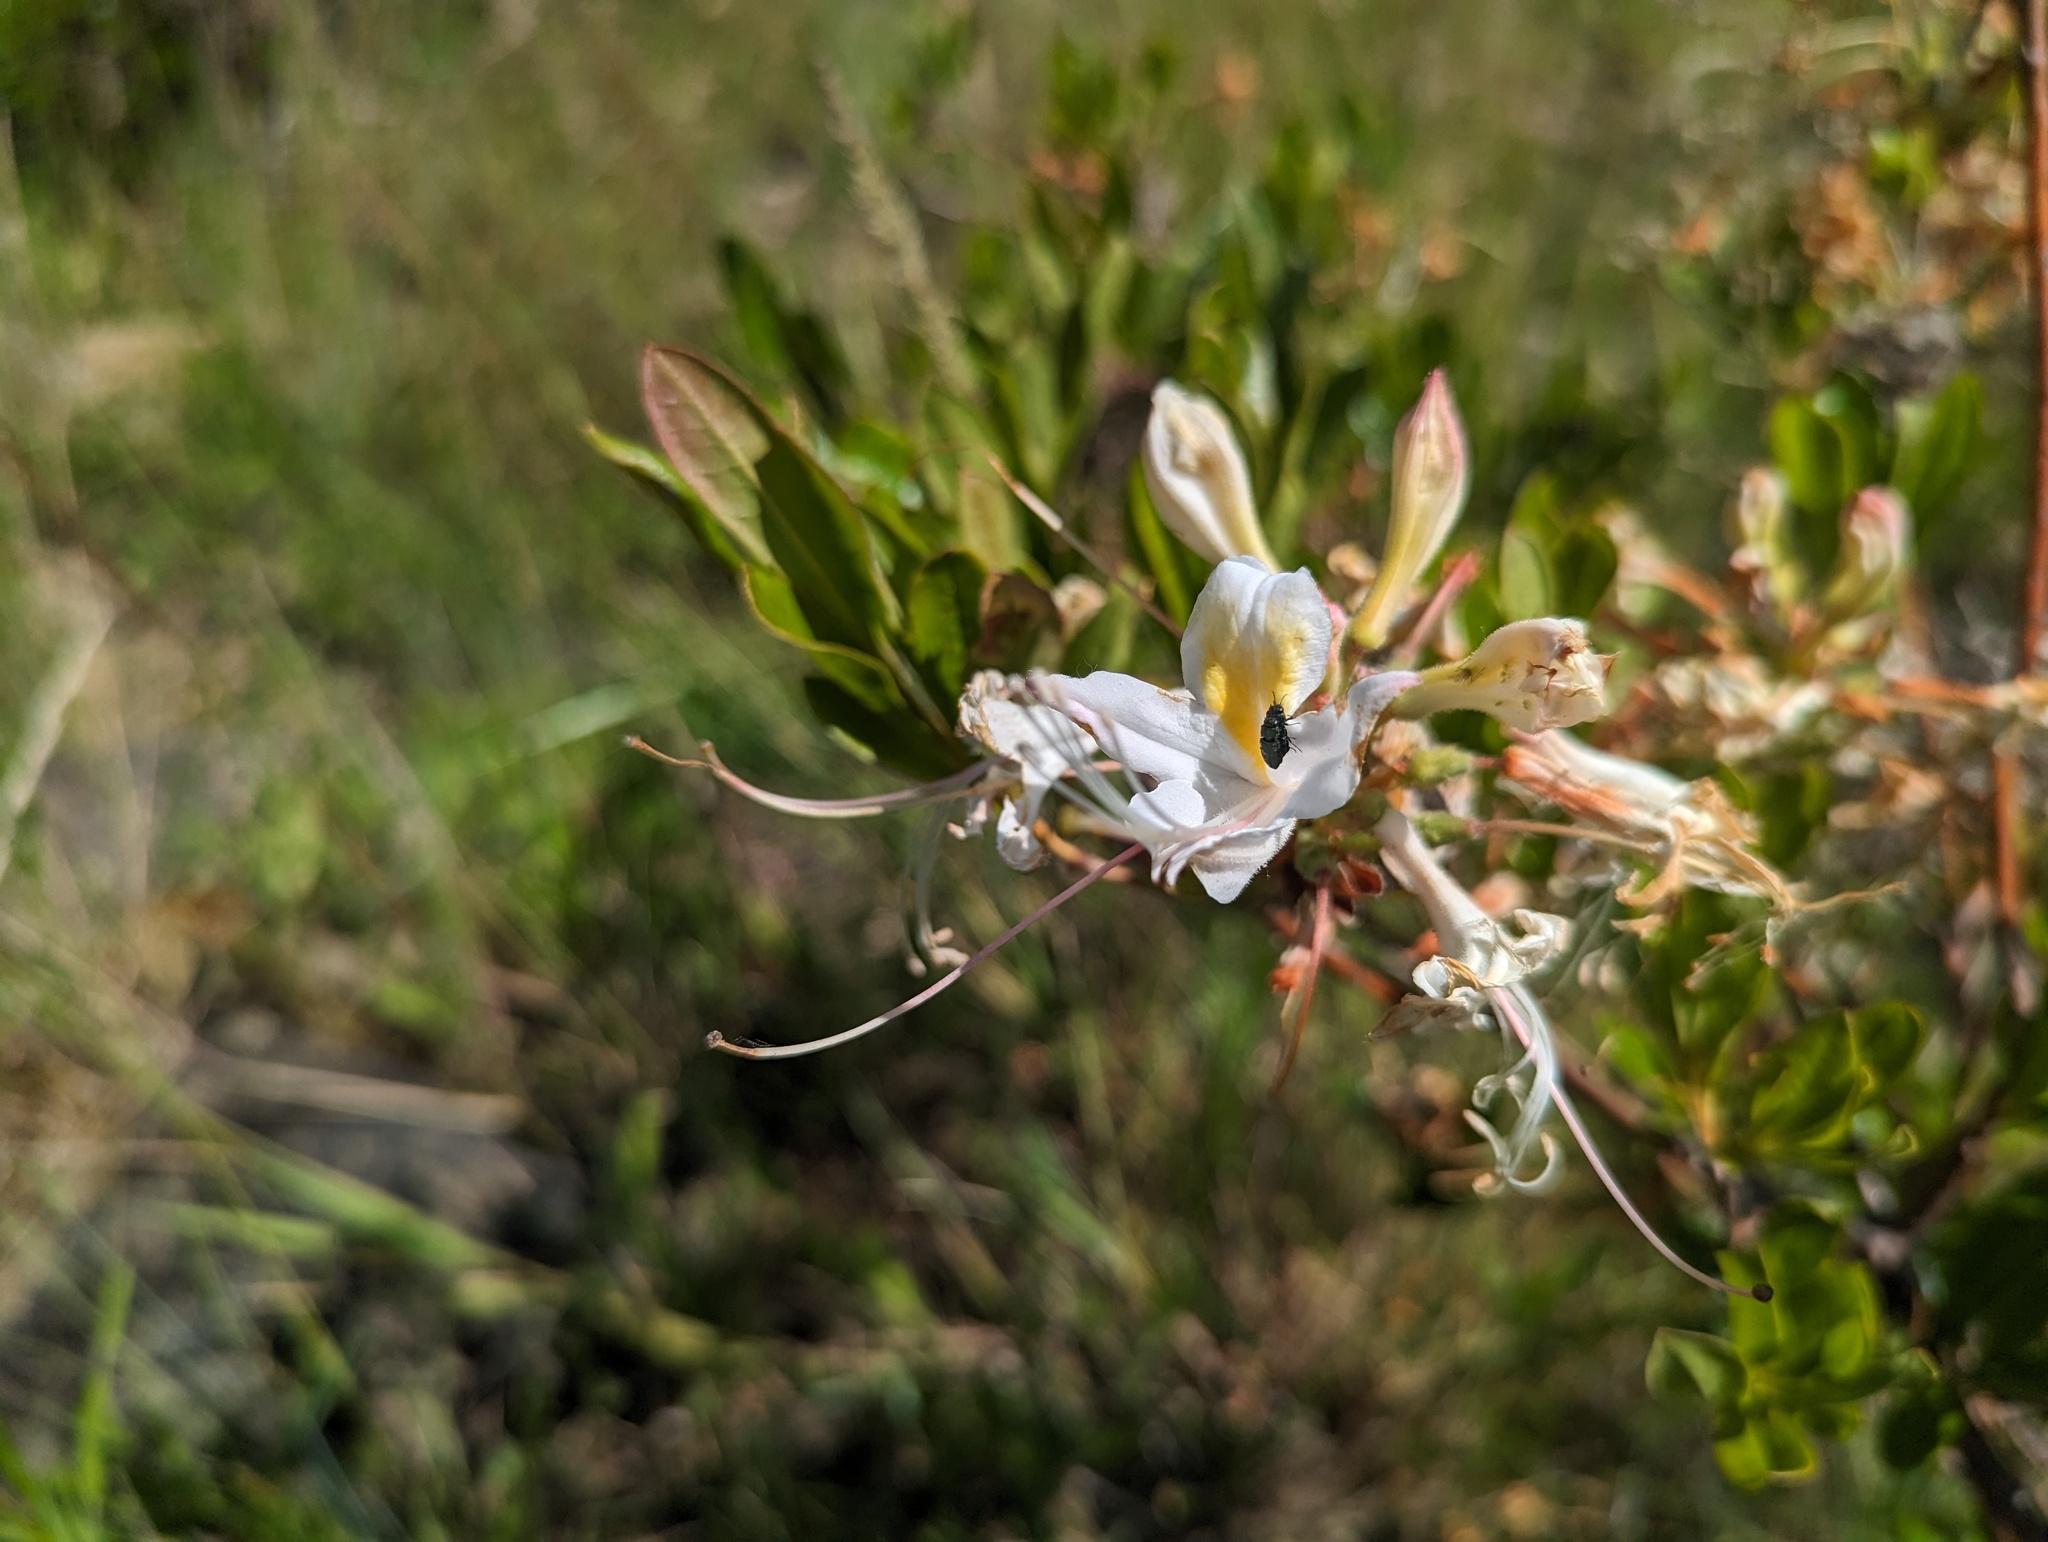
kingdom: Plantae
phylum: Tracheophyta
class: Magnoliopsida
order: Ericales
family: Ericaceae
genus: Rhododendron
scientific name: Rhododendron occidentale
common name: Western azalea
